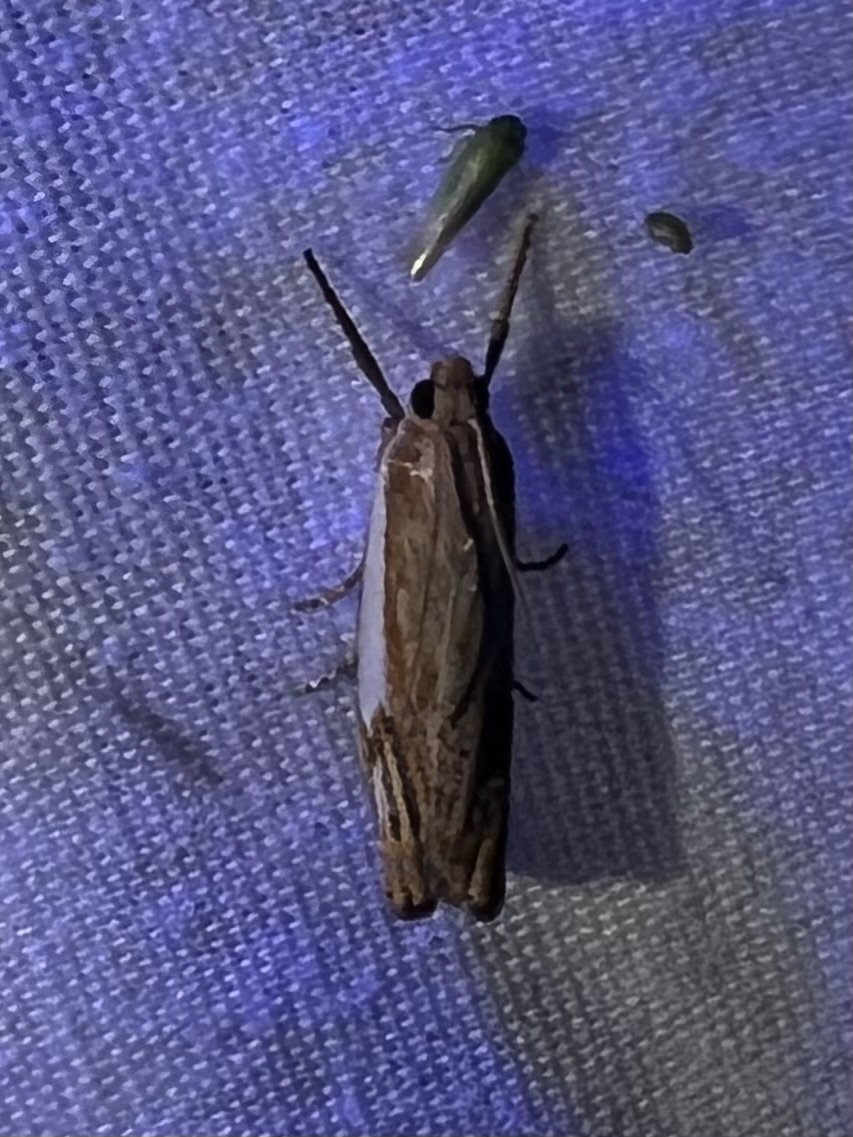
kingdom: Animalia
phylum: Arthropoda
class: Insecta
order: Lepidoptera
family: Crambidae
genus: Crambus
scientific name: Crambus agitatellus
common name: Double-banded grass-veneer
